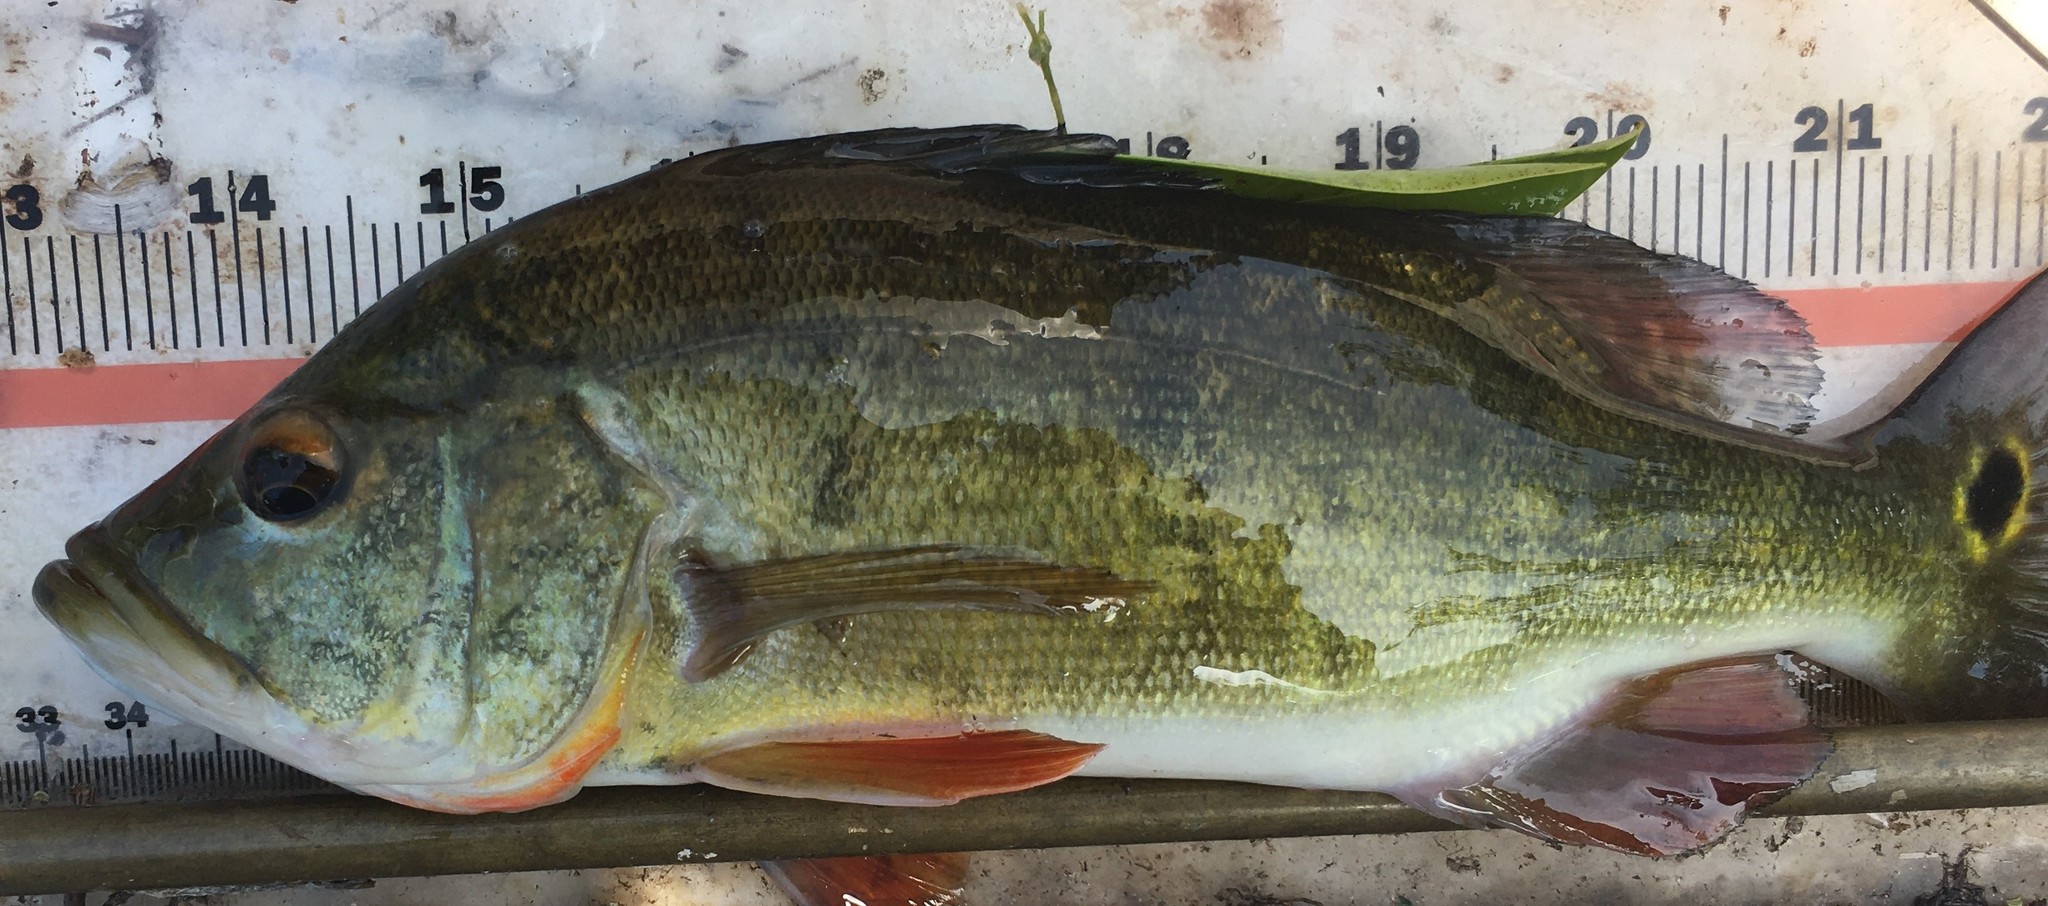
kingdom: Animalia
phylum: Chordata
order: Perciformes
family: Cichlidae
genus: Cichla
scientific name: Cichla ocellaris
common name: Peacock cichlid
